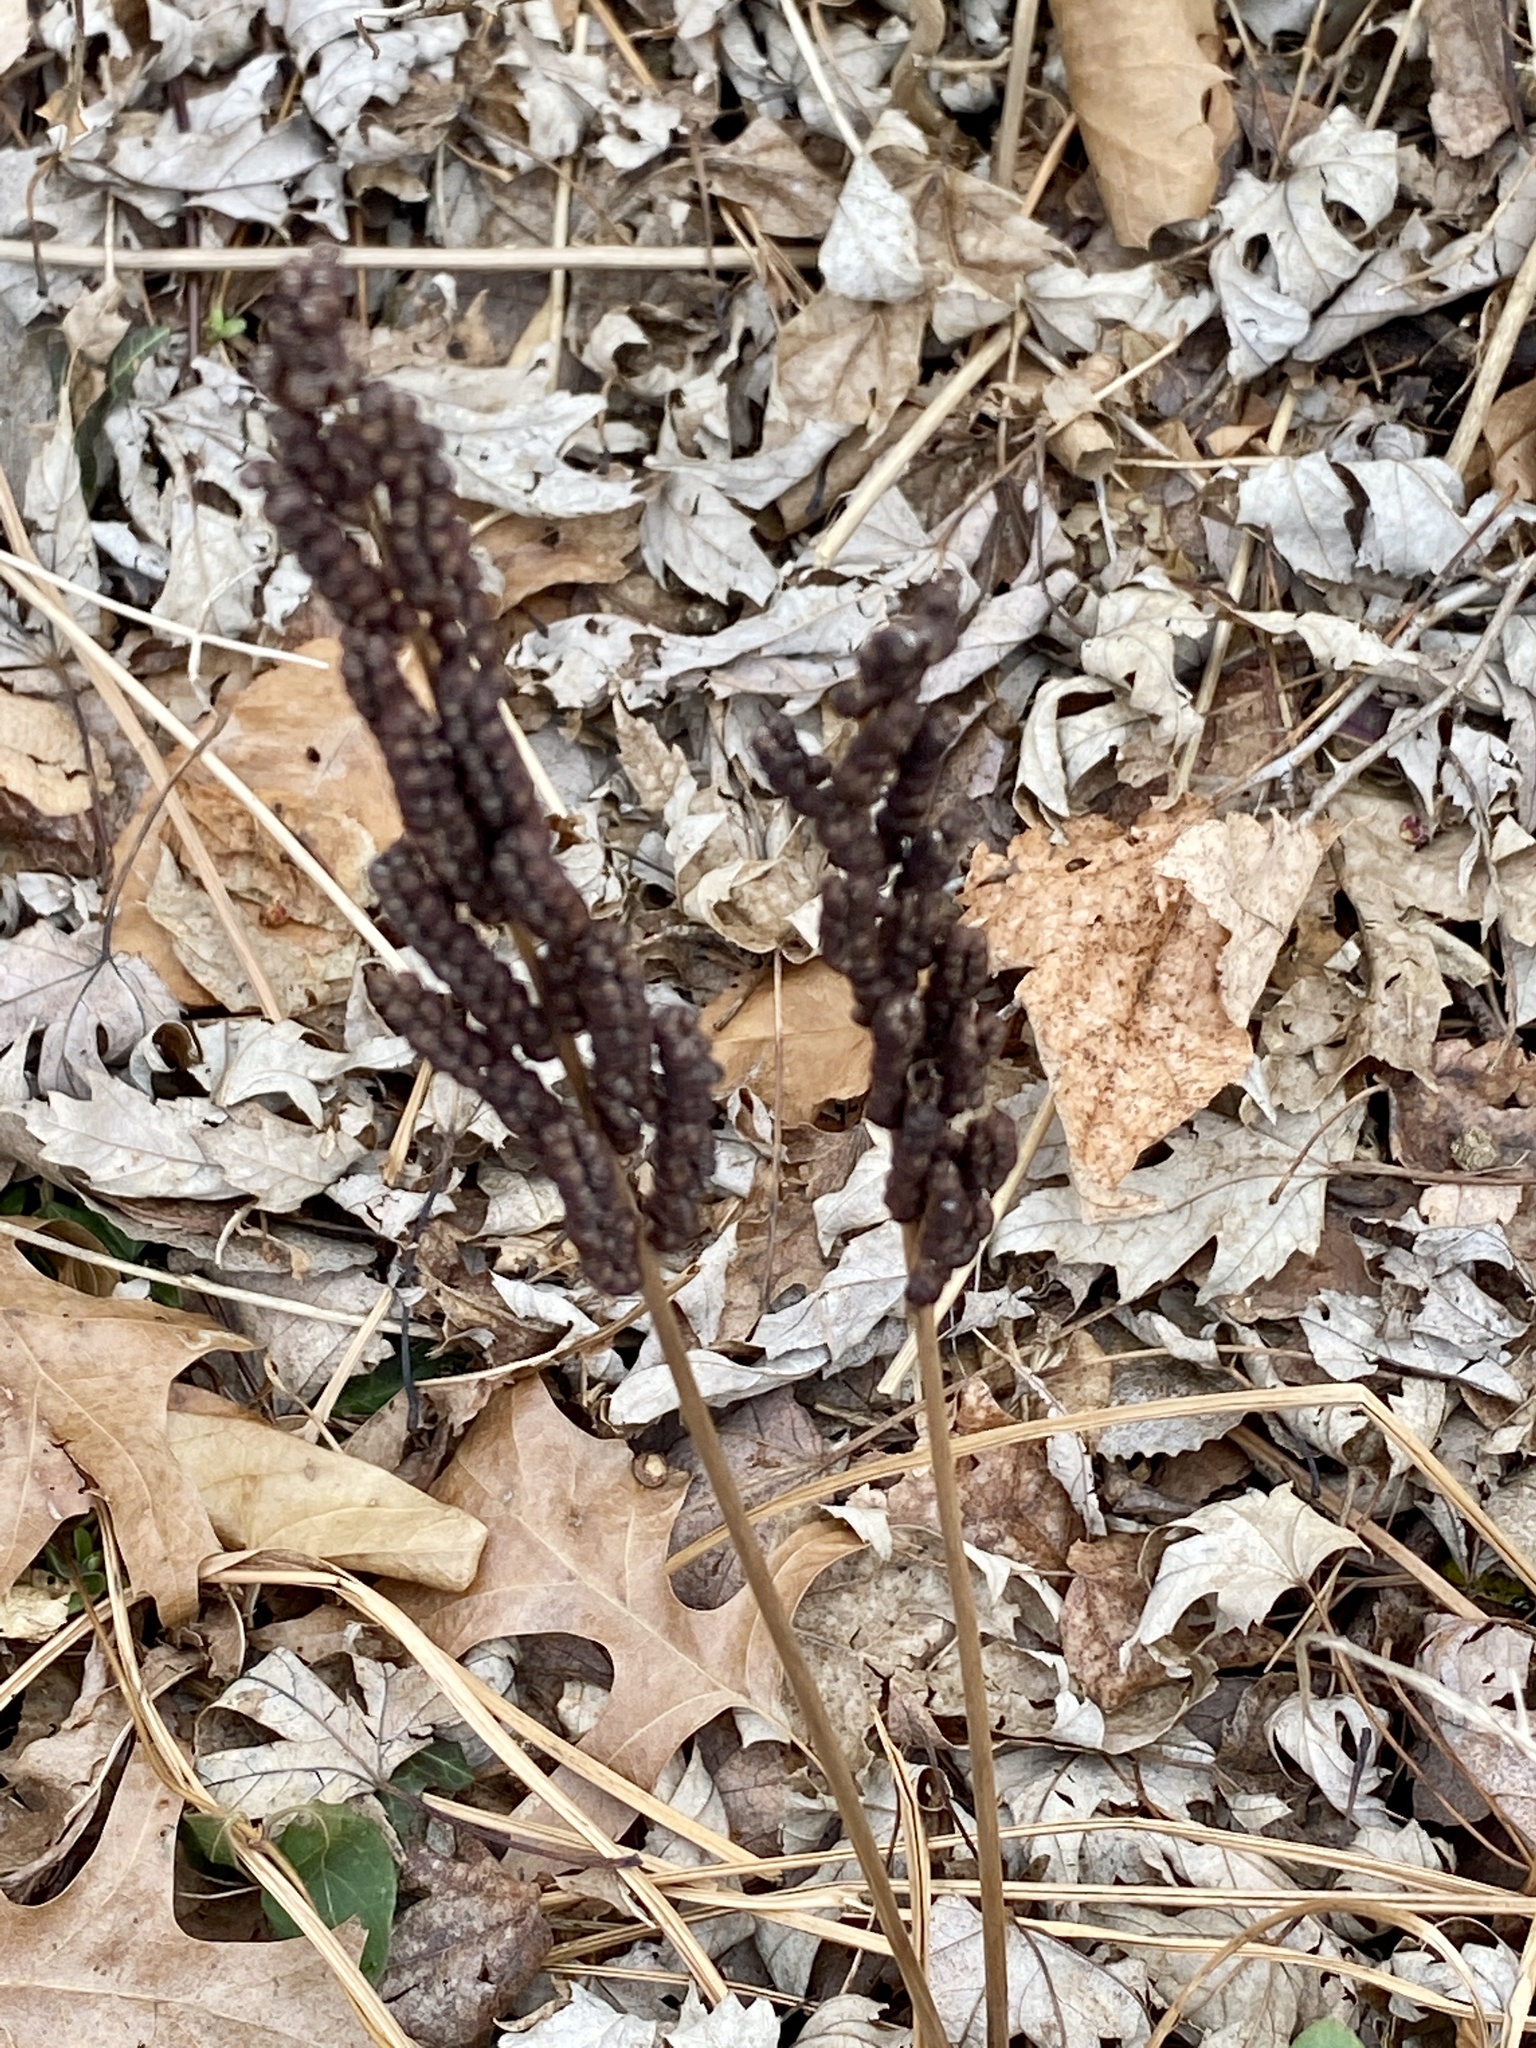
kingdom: Plantae
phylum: Tracheophyta
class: Polypodiopsida
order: Polypodiales
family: Onocleaceae
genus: Onoclea
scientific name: Onoclea sensibilis
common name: Sensitive fern
